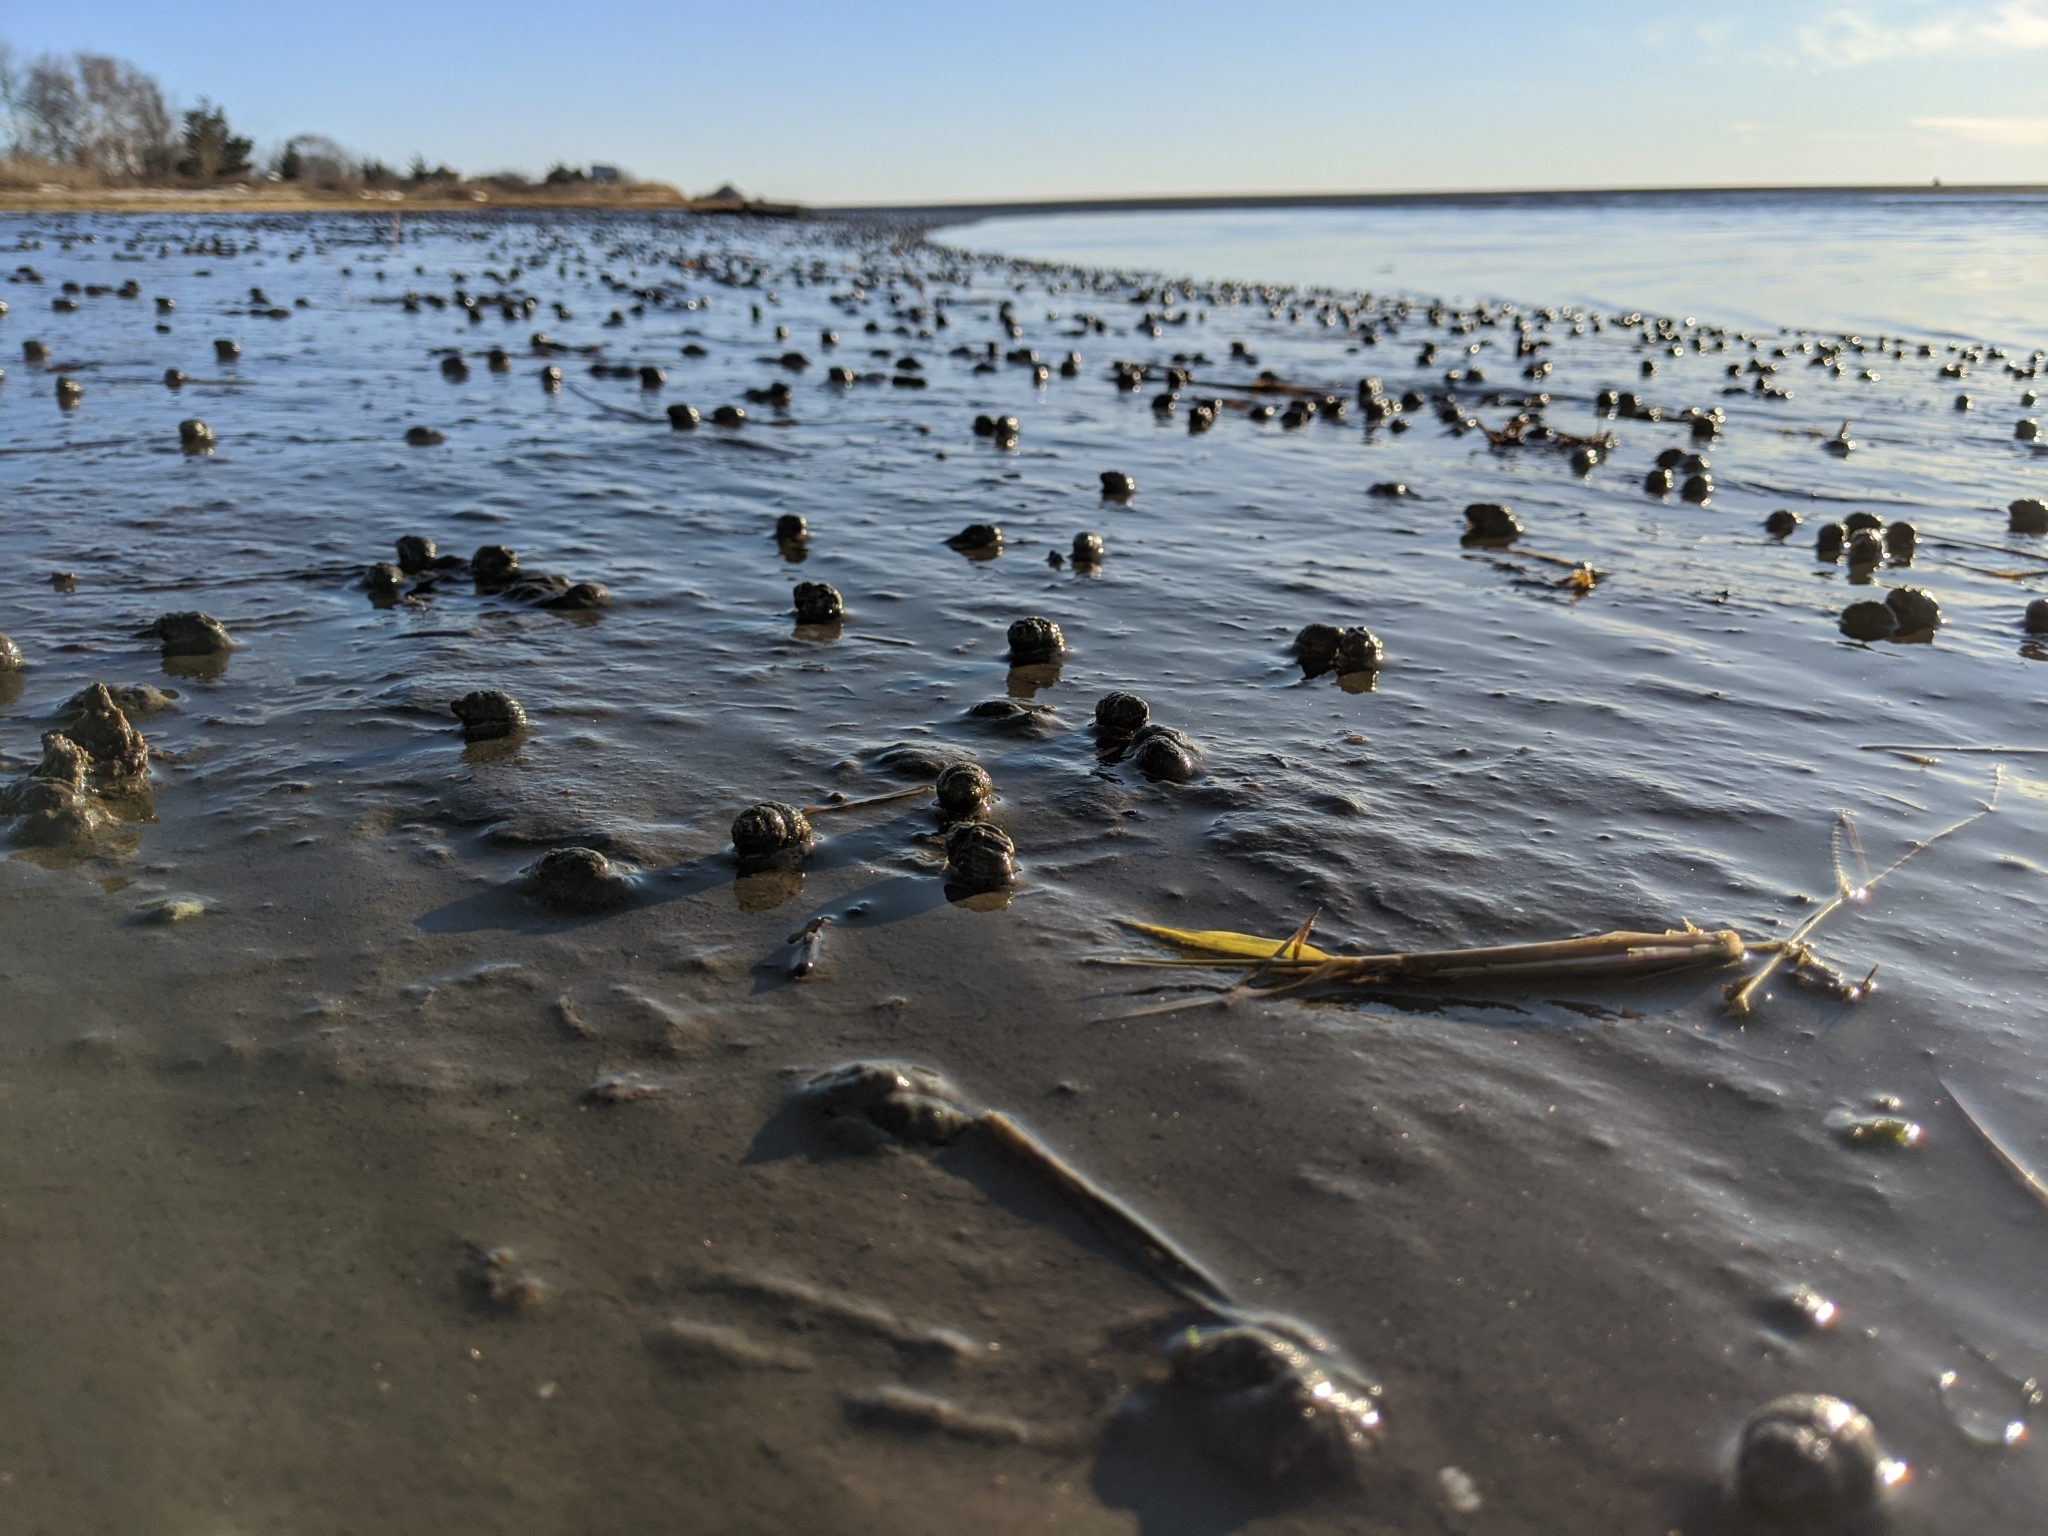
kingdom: Animalia
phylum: Mollusca
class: Gastropoda
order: Neogastropoda
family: Nassariidae
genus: Ilyanassa
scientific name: Ilyanassa obsoleta
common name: Eastern mudsnail
